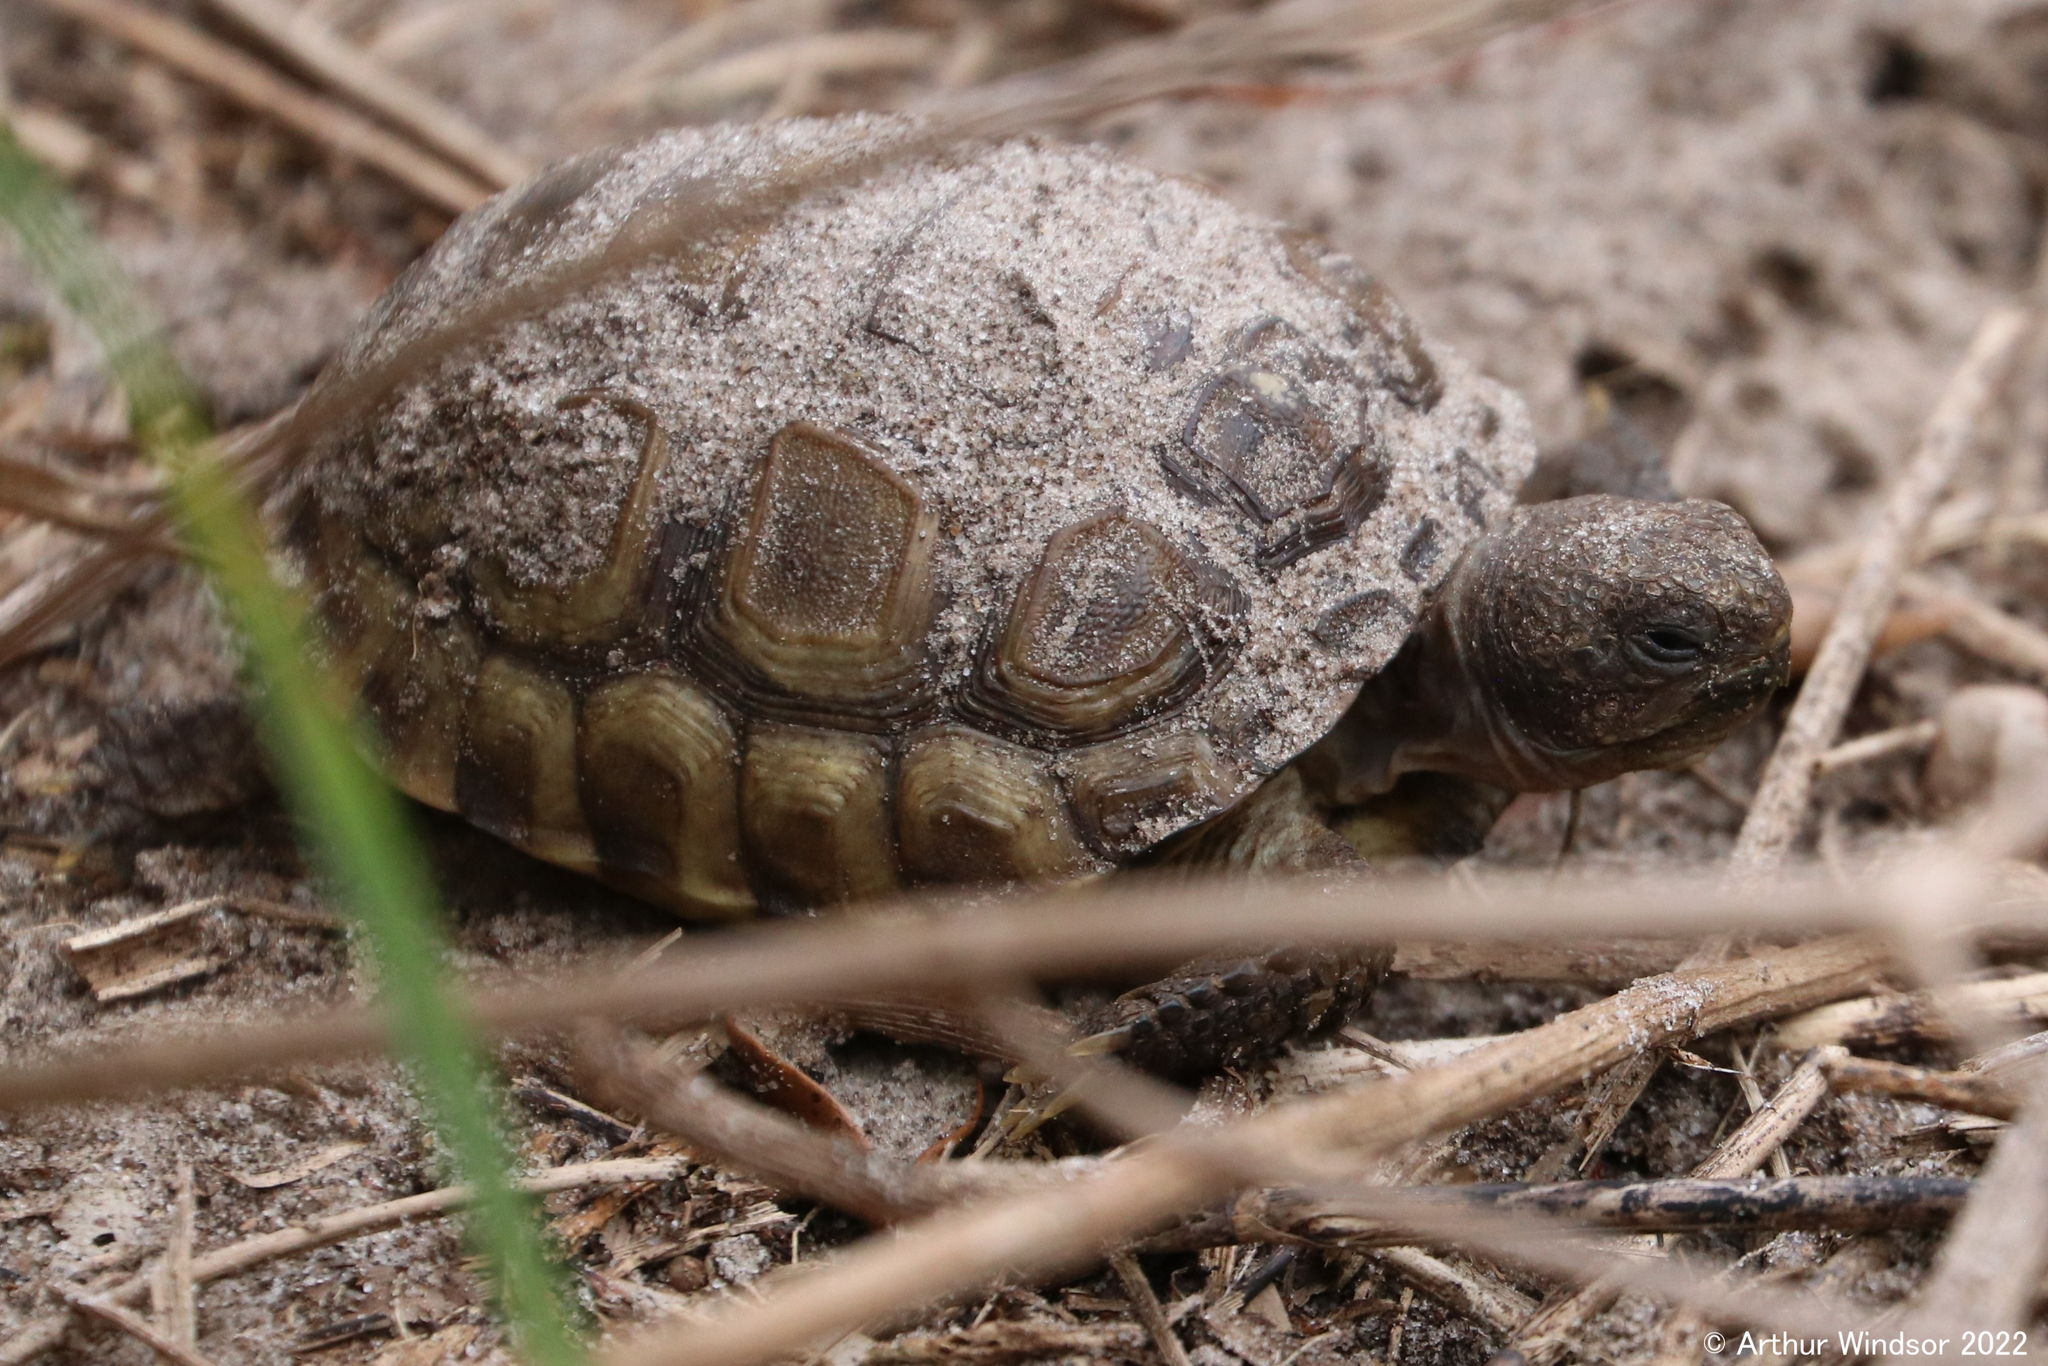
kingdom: Animalia
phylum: Chordata
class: Testudines
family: Testudinidae
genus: Gopherus
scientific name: Gopherus polyphemus
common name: Florida gopher tortoise
